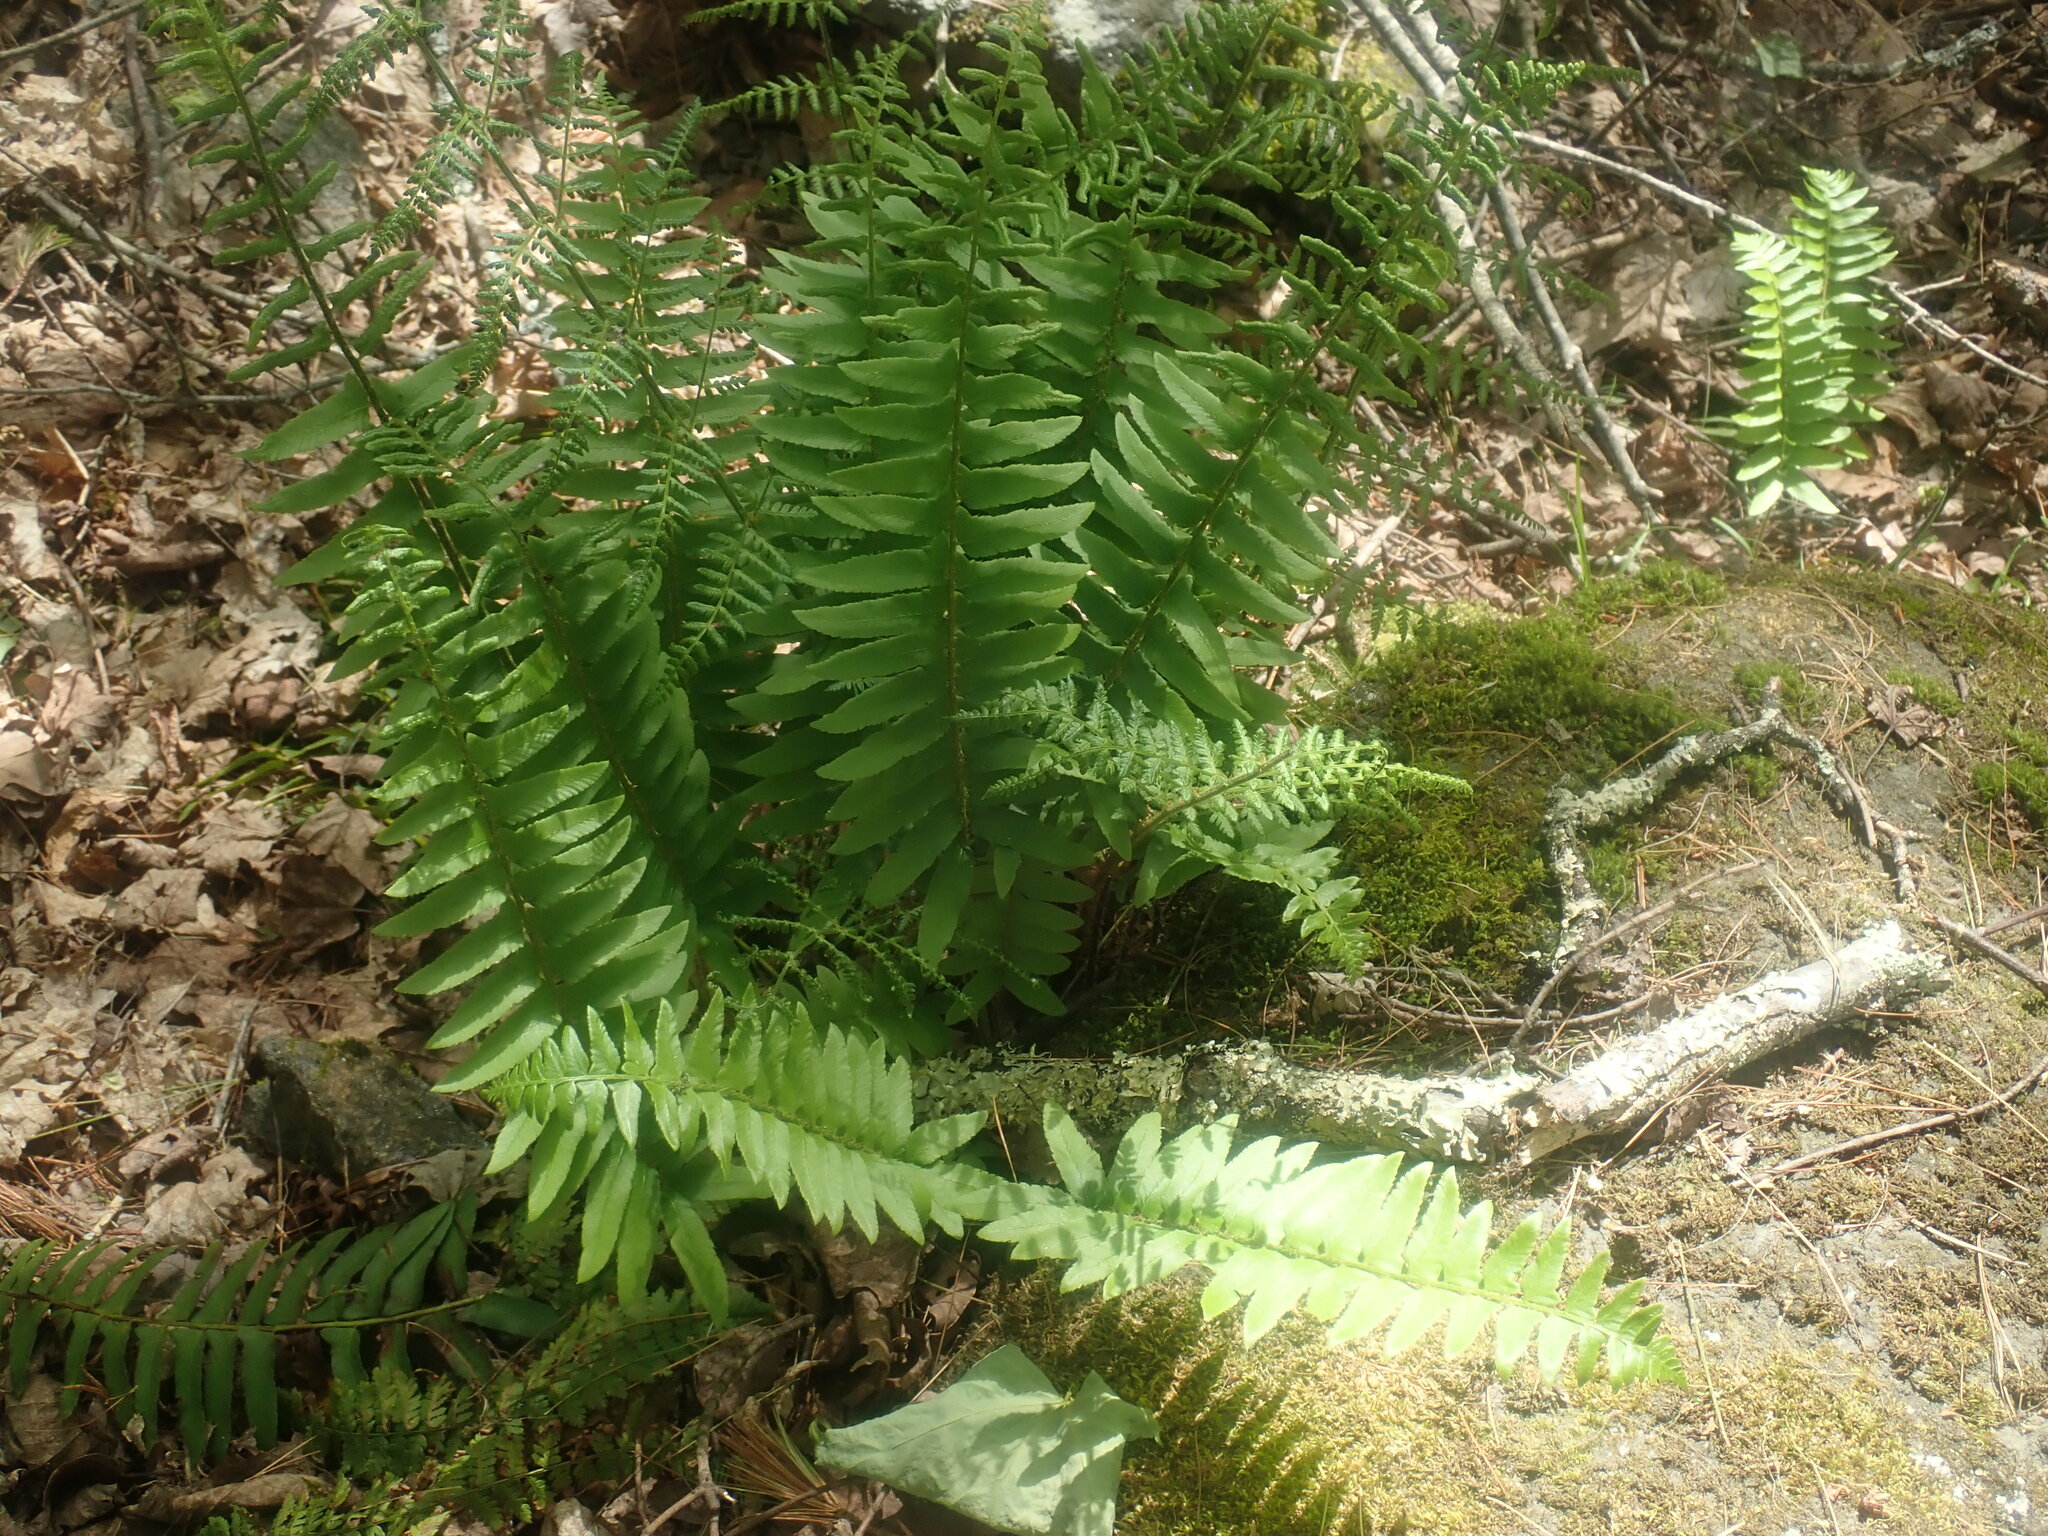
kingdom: Plantae
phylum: Tracheophyta
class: Polypodiopsida
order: Polypodiales
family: Dryopteridaceae
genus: Polystichum
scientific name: Polystichum acrostichoides
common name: Christmas fern
